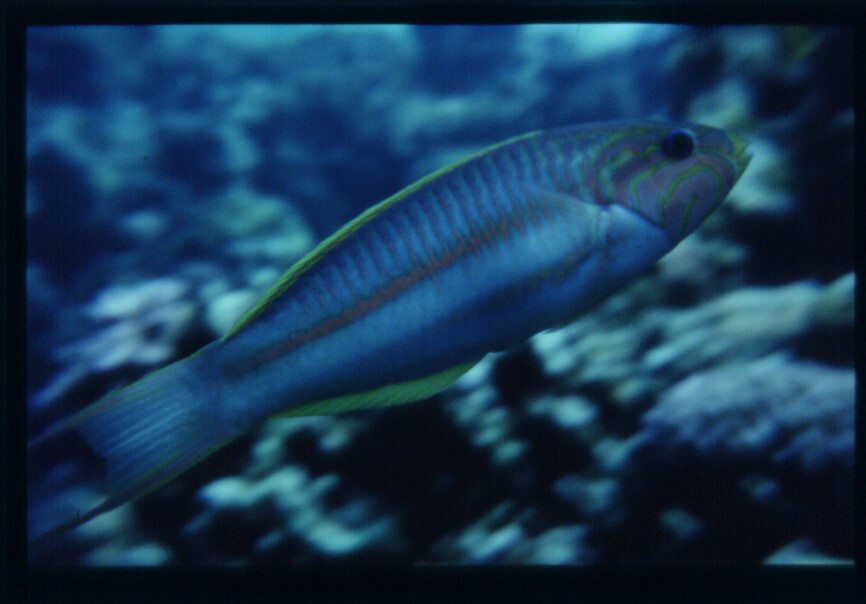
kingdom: Animalia
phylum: Chordata
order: Perciformes
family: Labridae
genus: Thalassoma
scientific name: Thalassoma rueppellii
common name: Klunzinger's wrasse
